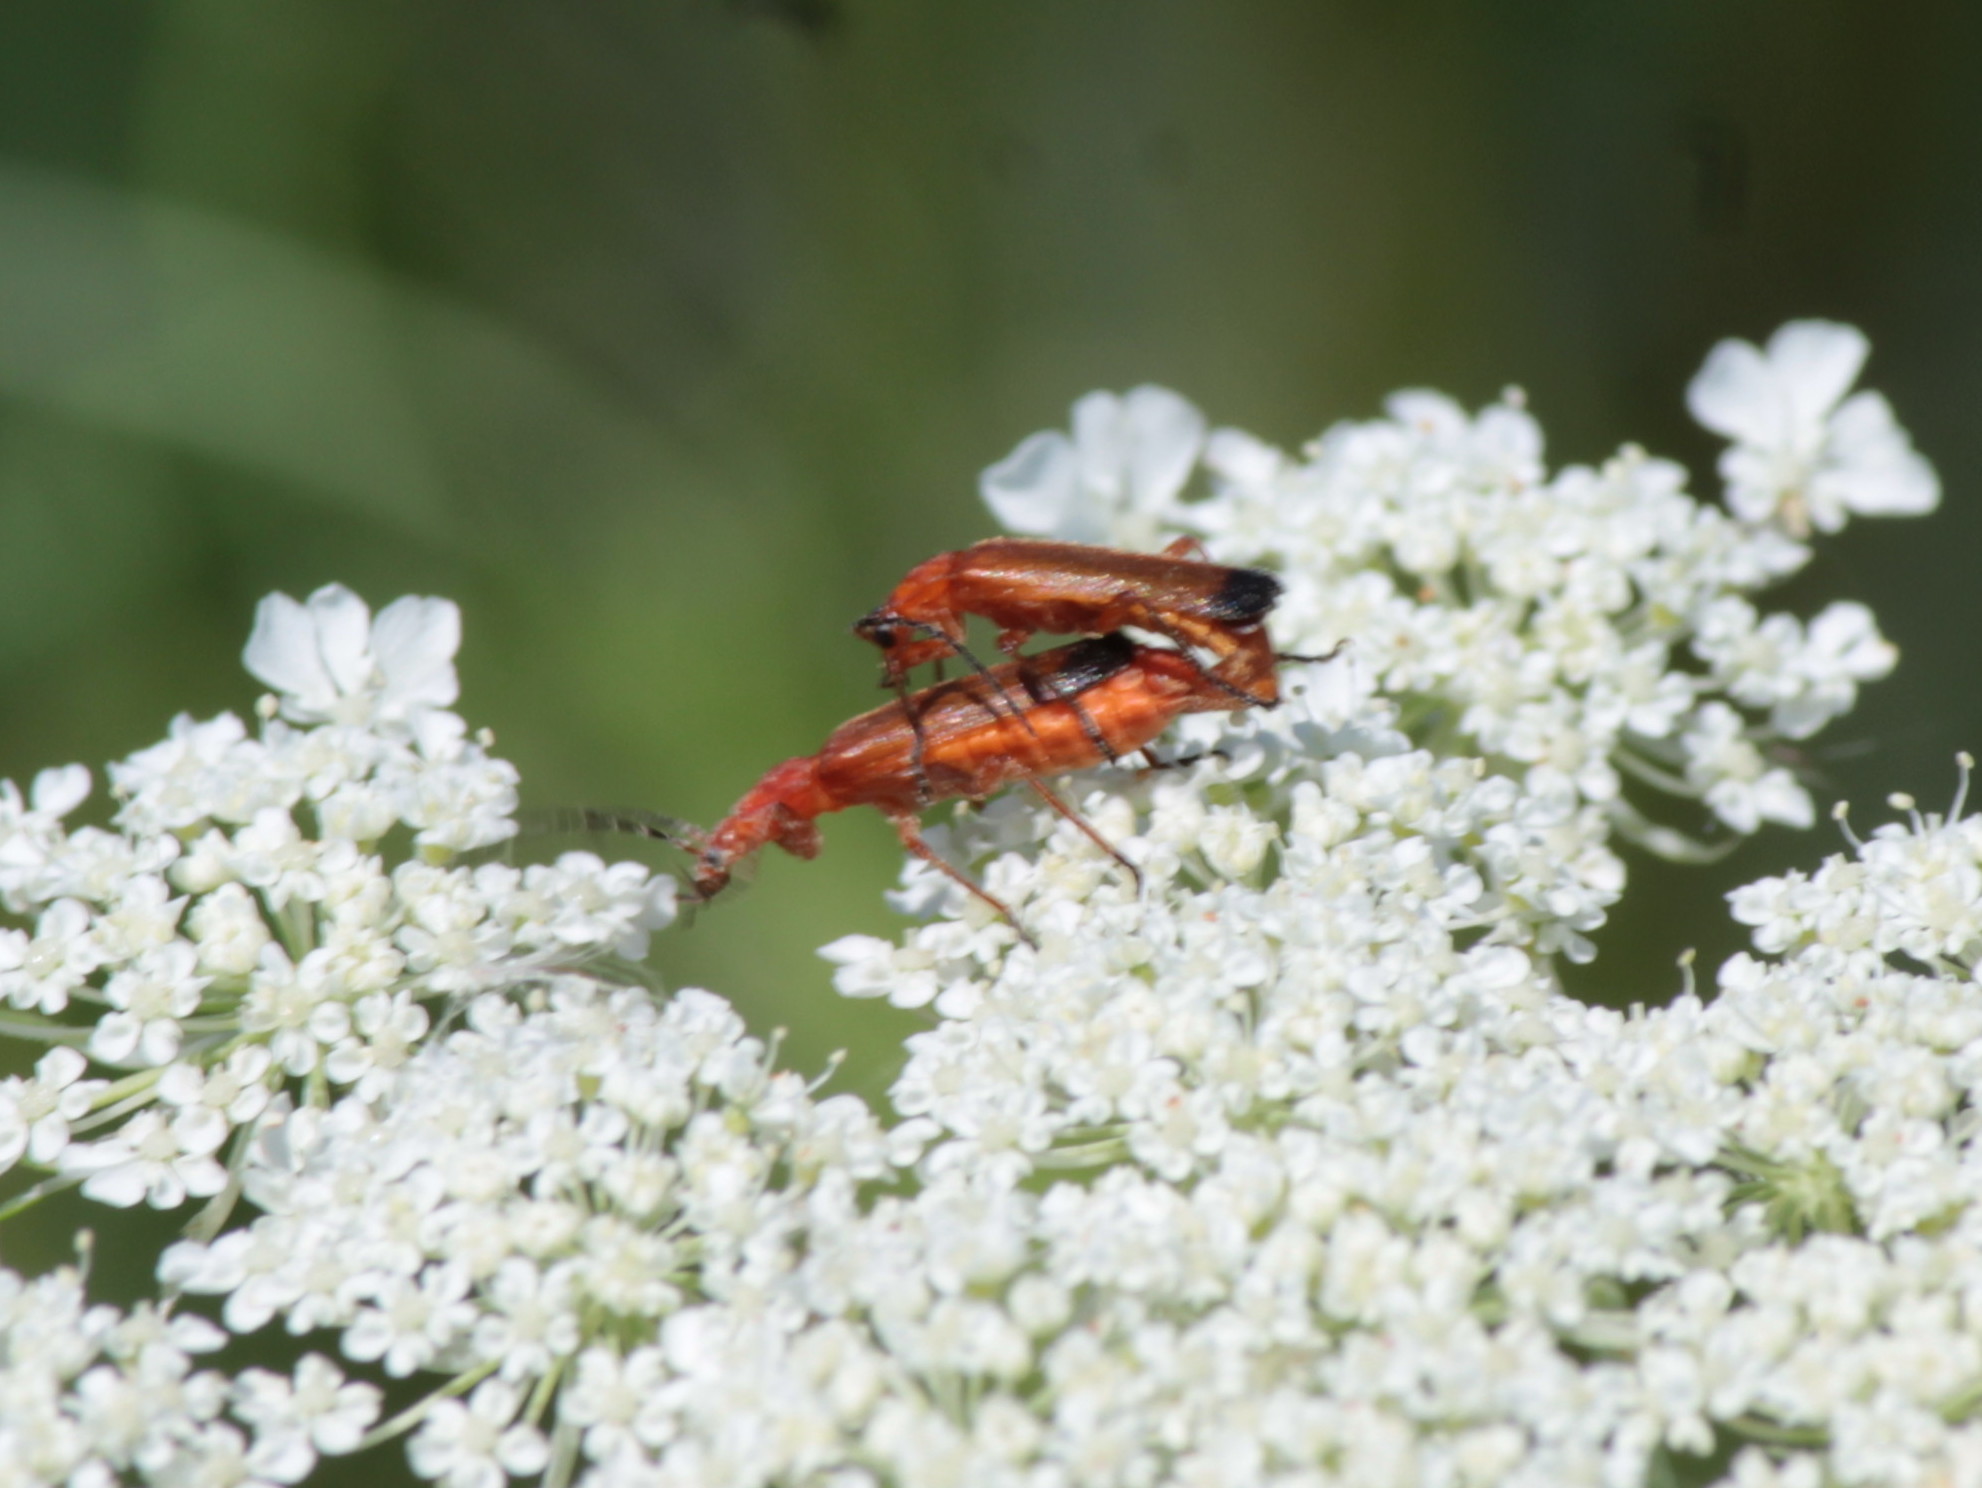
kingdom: Animalia
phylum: Arthropoda
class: Insecta
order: Coleoptera
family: Cantharidae
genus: Rhagonycha
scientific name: Rhagonycha fulva
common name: Common red soldier beetle
